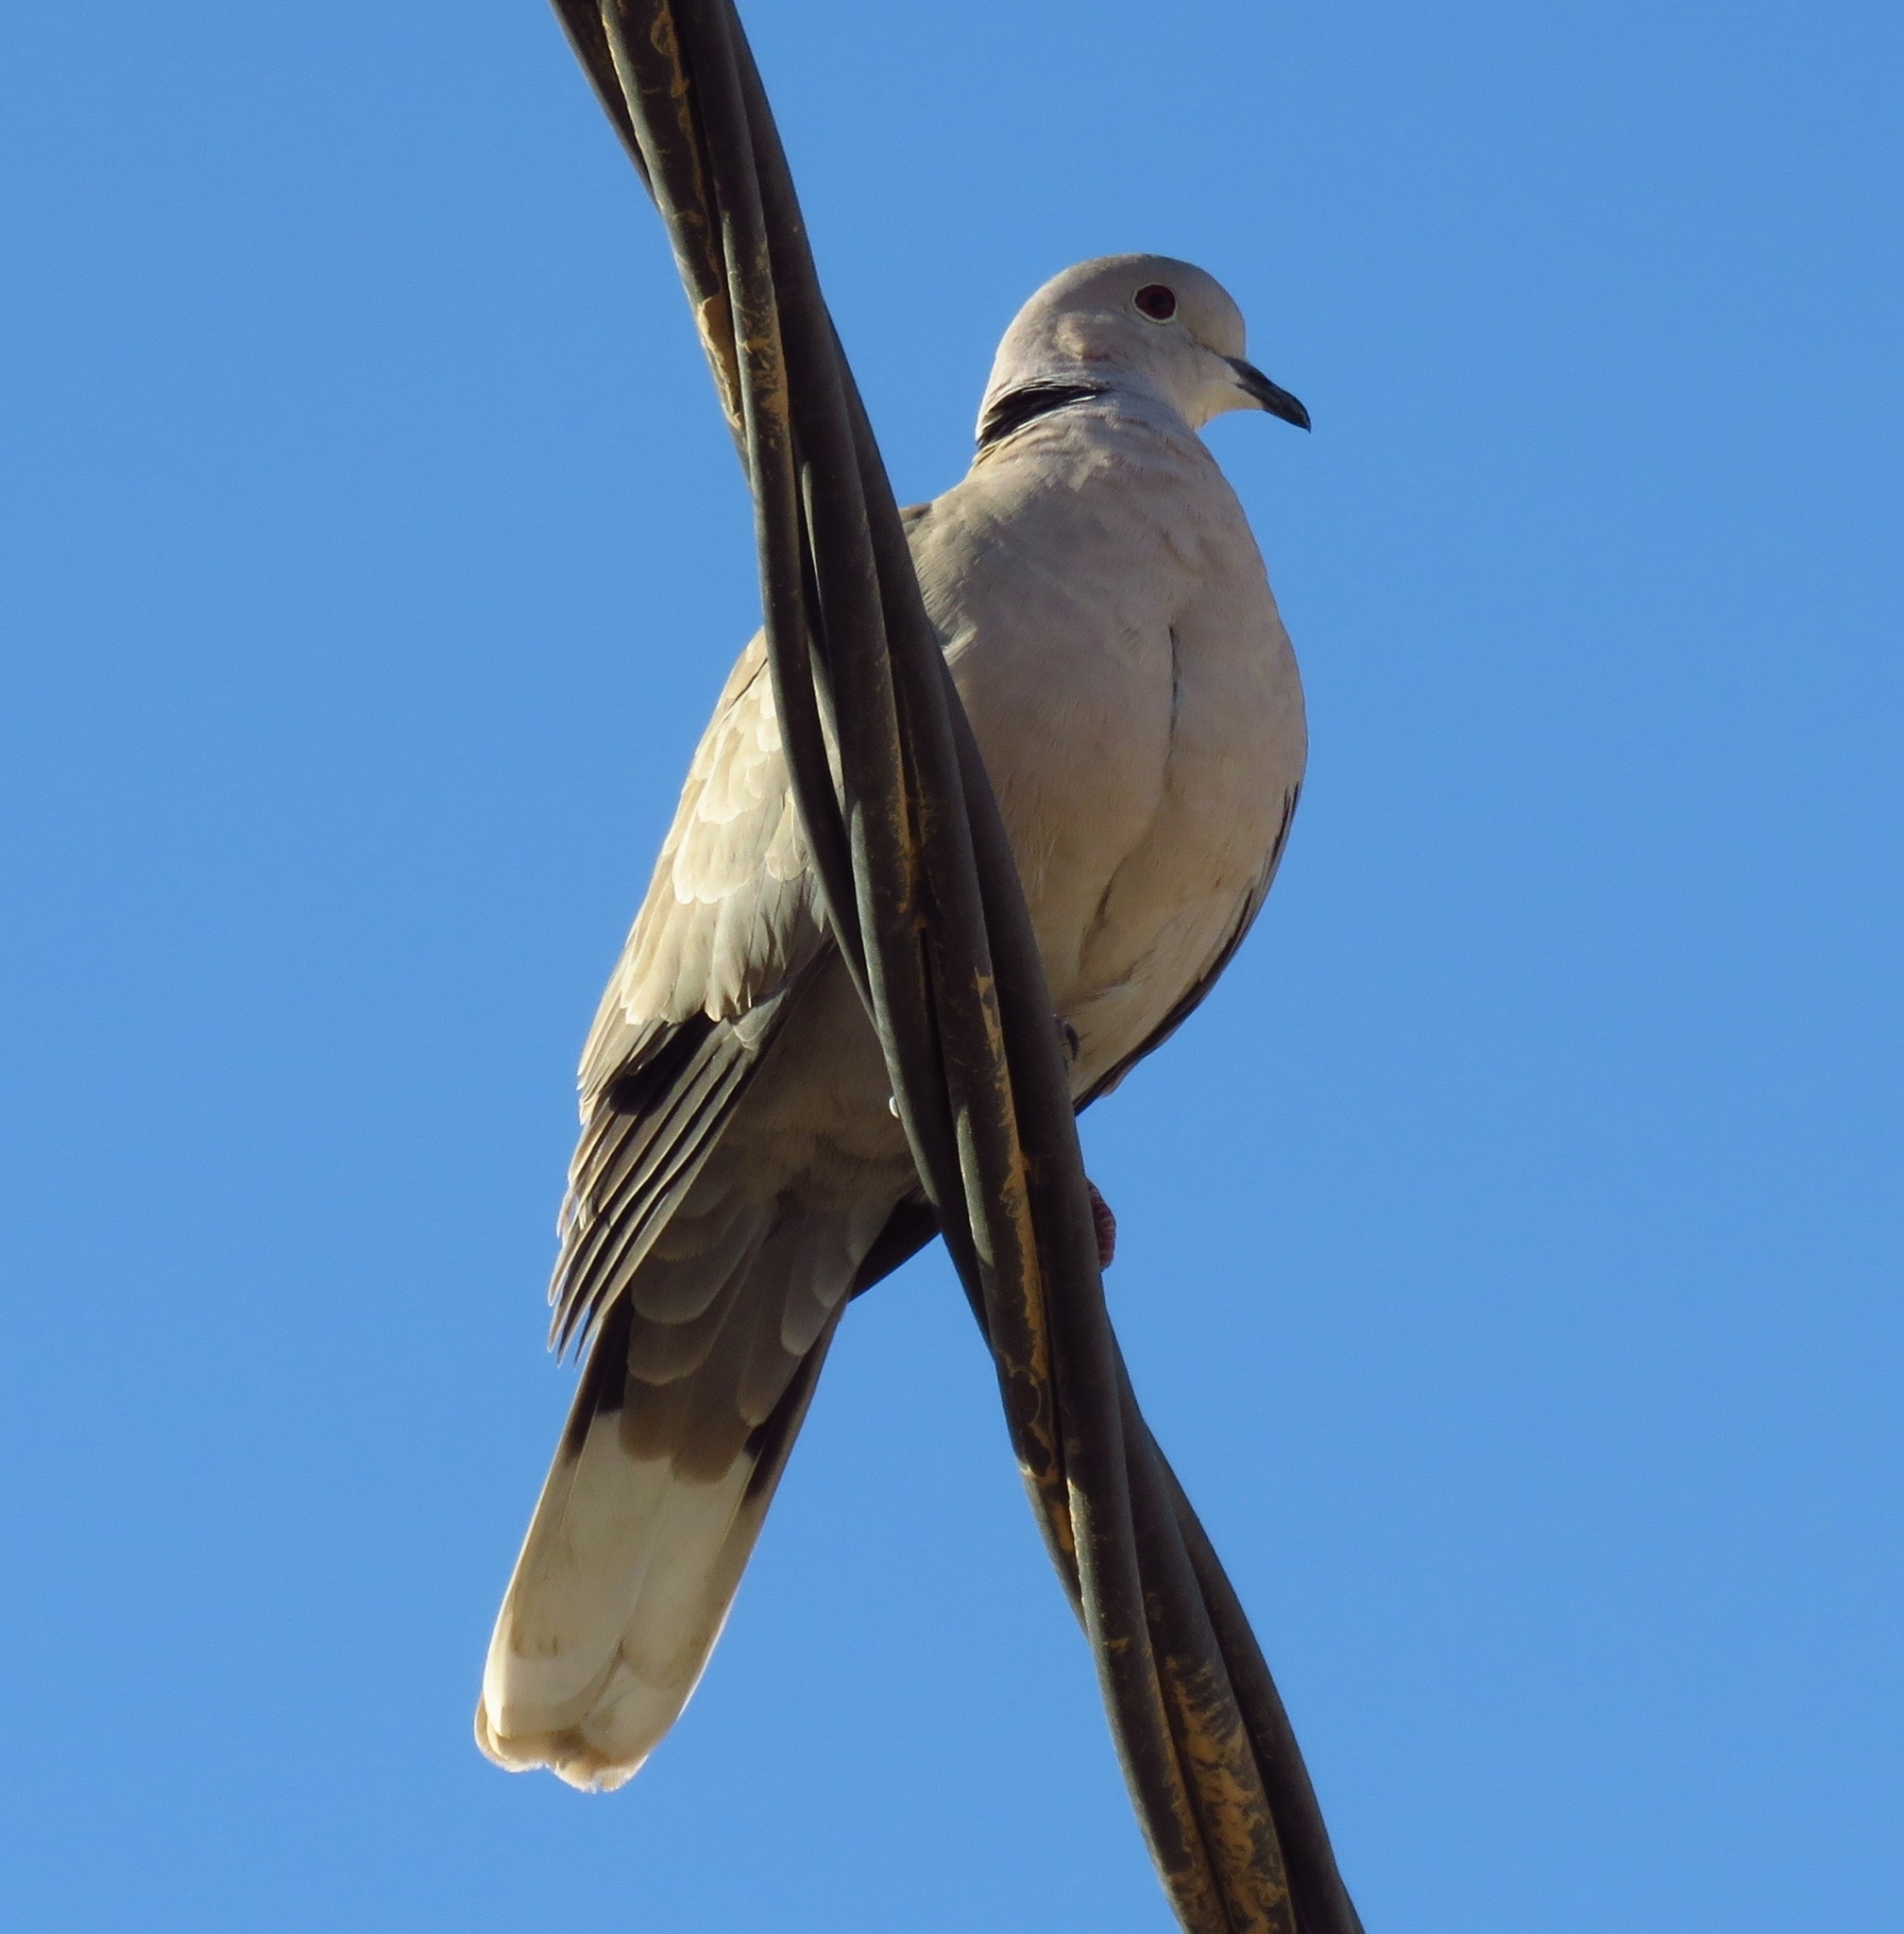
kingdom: Animalia
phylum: Chordata
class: Aves
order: Columbiformes
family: Columbidae
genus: Streptopelia
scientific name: Streptopelia decaocto
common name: Eurasian collared dove
